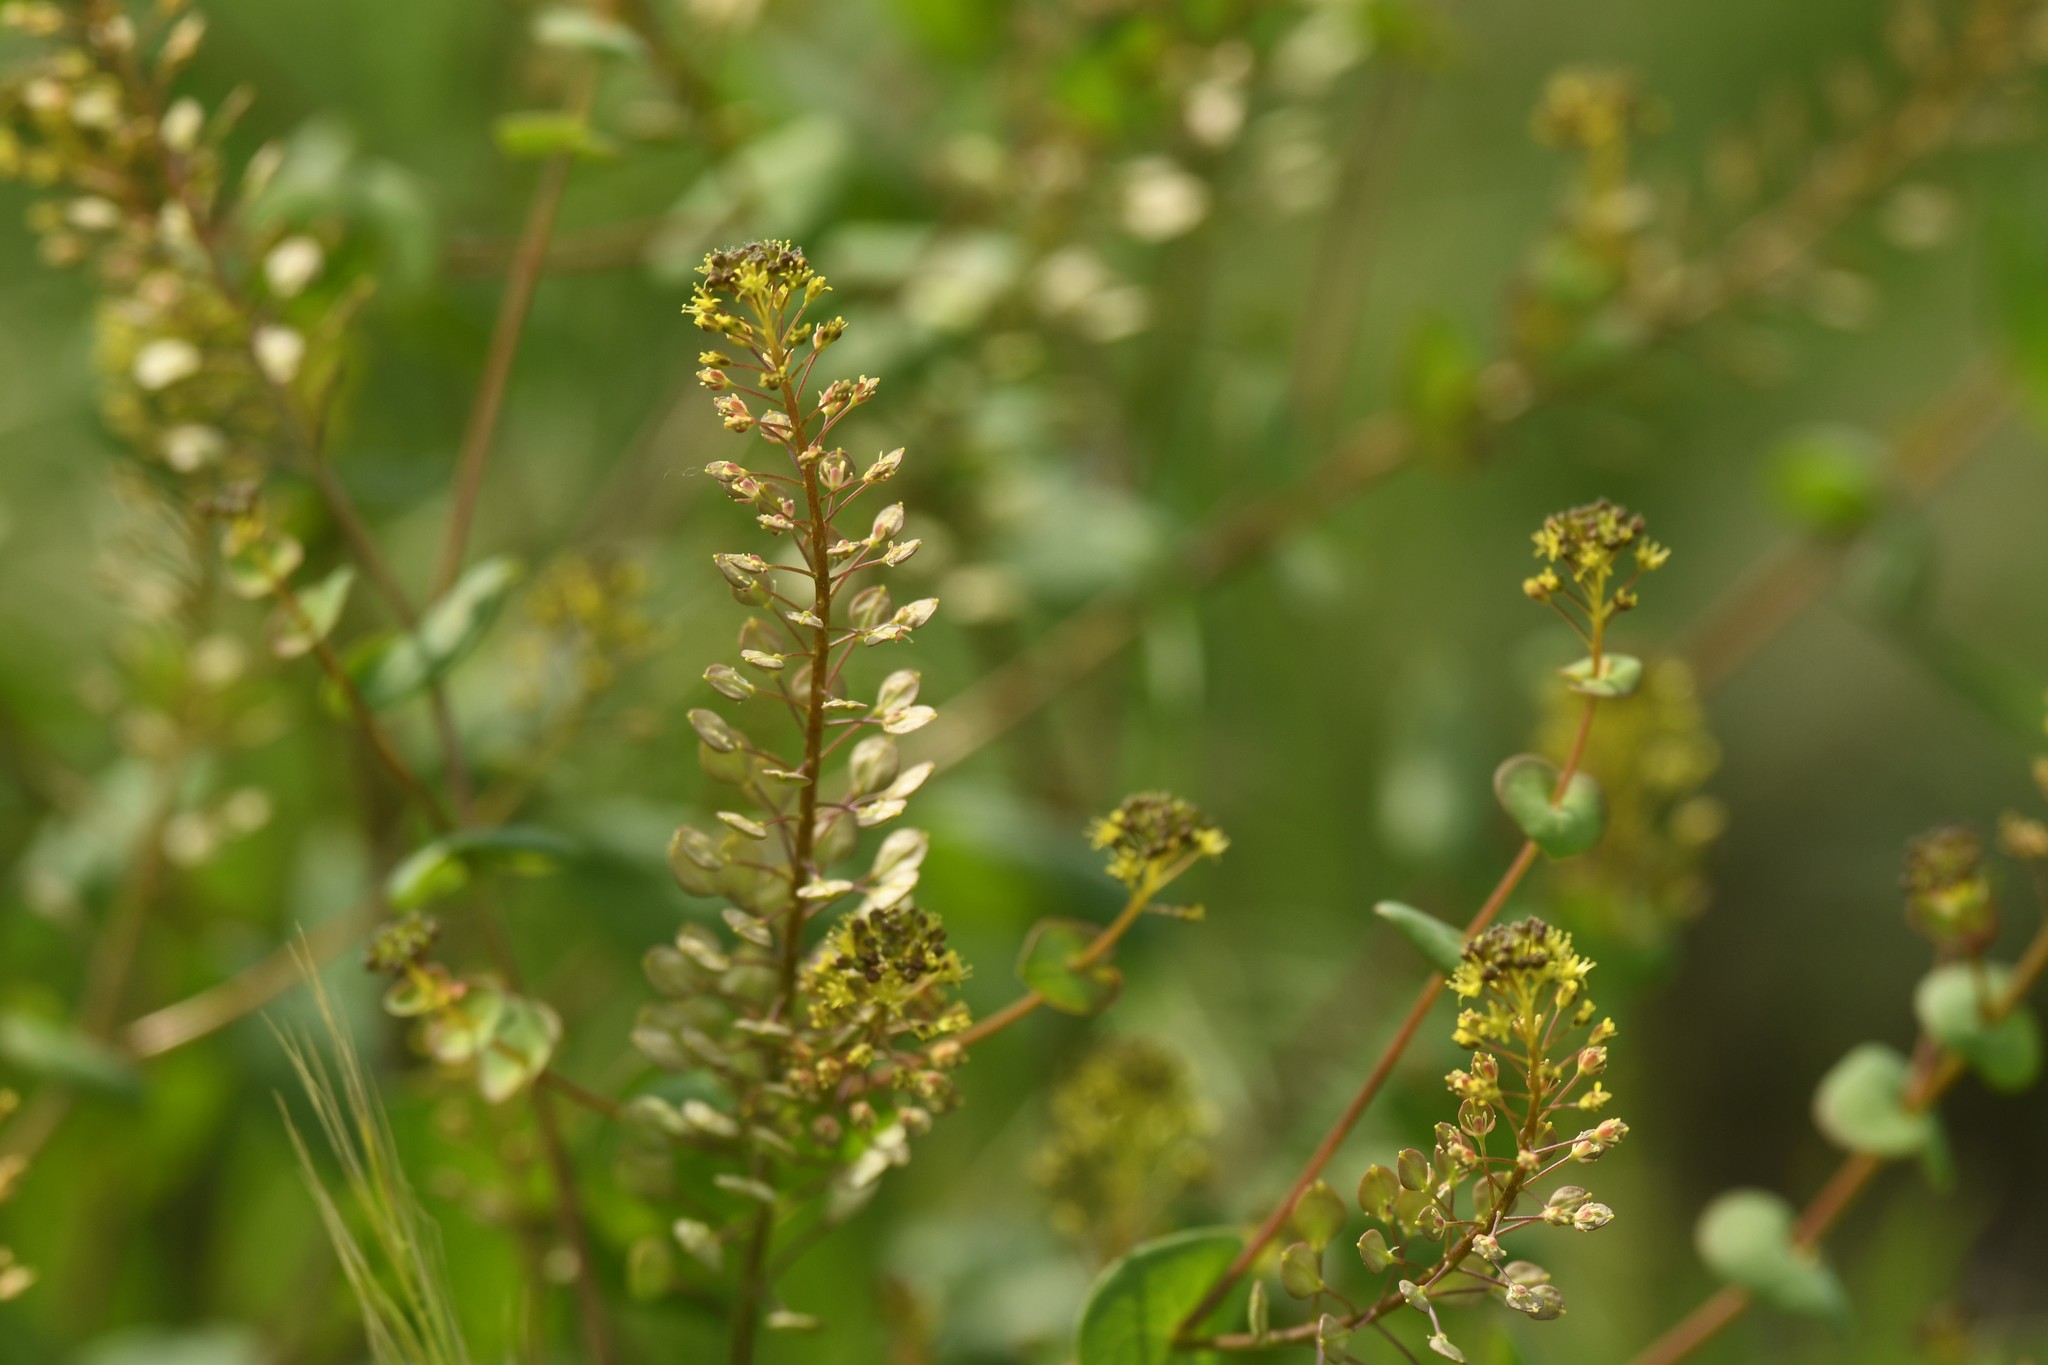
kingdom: Plantae
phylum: Tracheophyta
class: Magnoliopsida
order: Brassicales
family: Brassicaceae
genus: Lepidium
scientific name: Lepidium perfoliatum
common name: Perfoliate pepperwort
